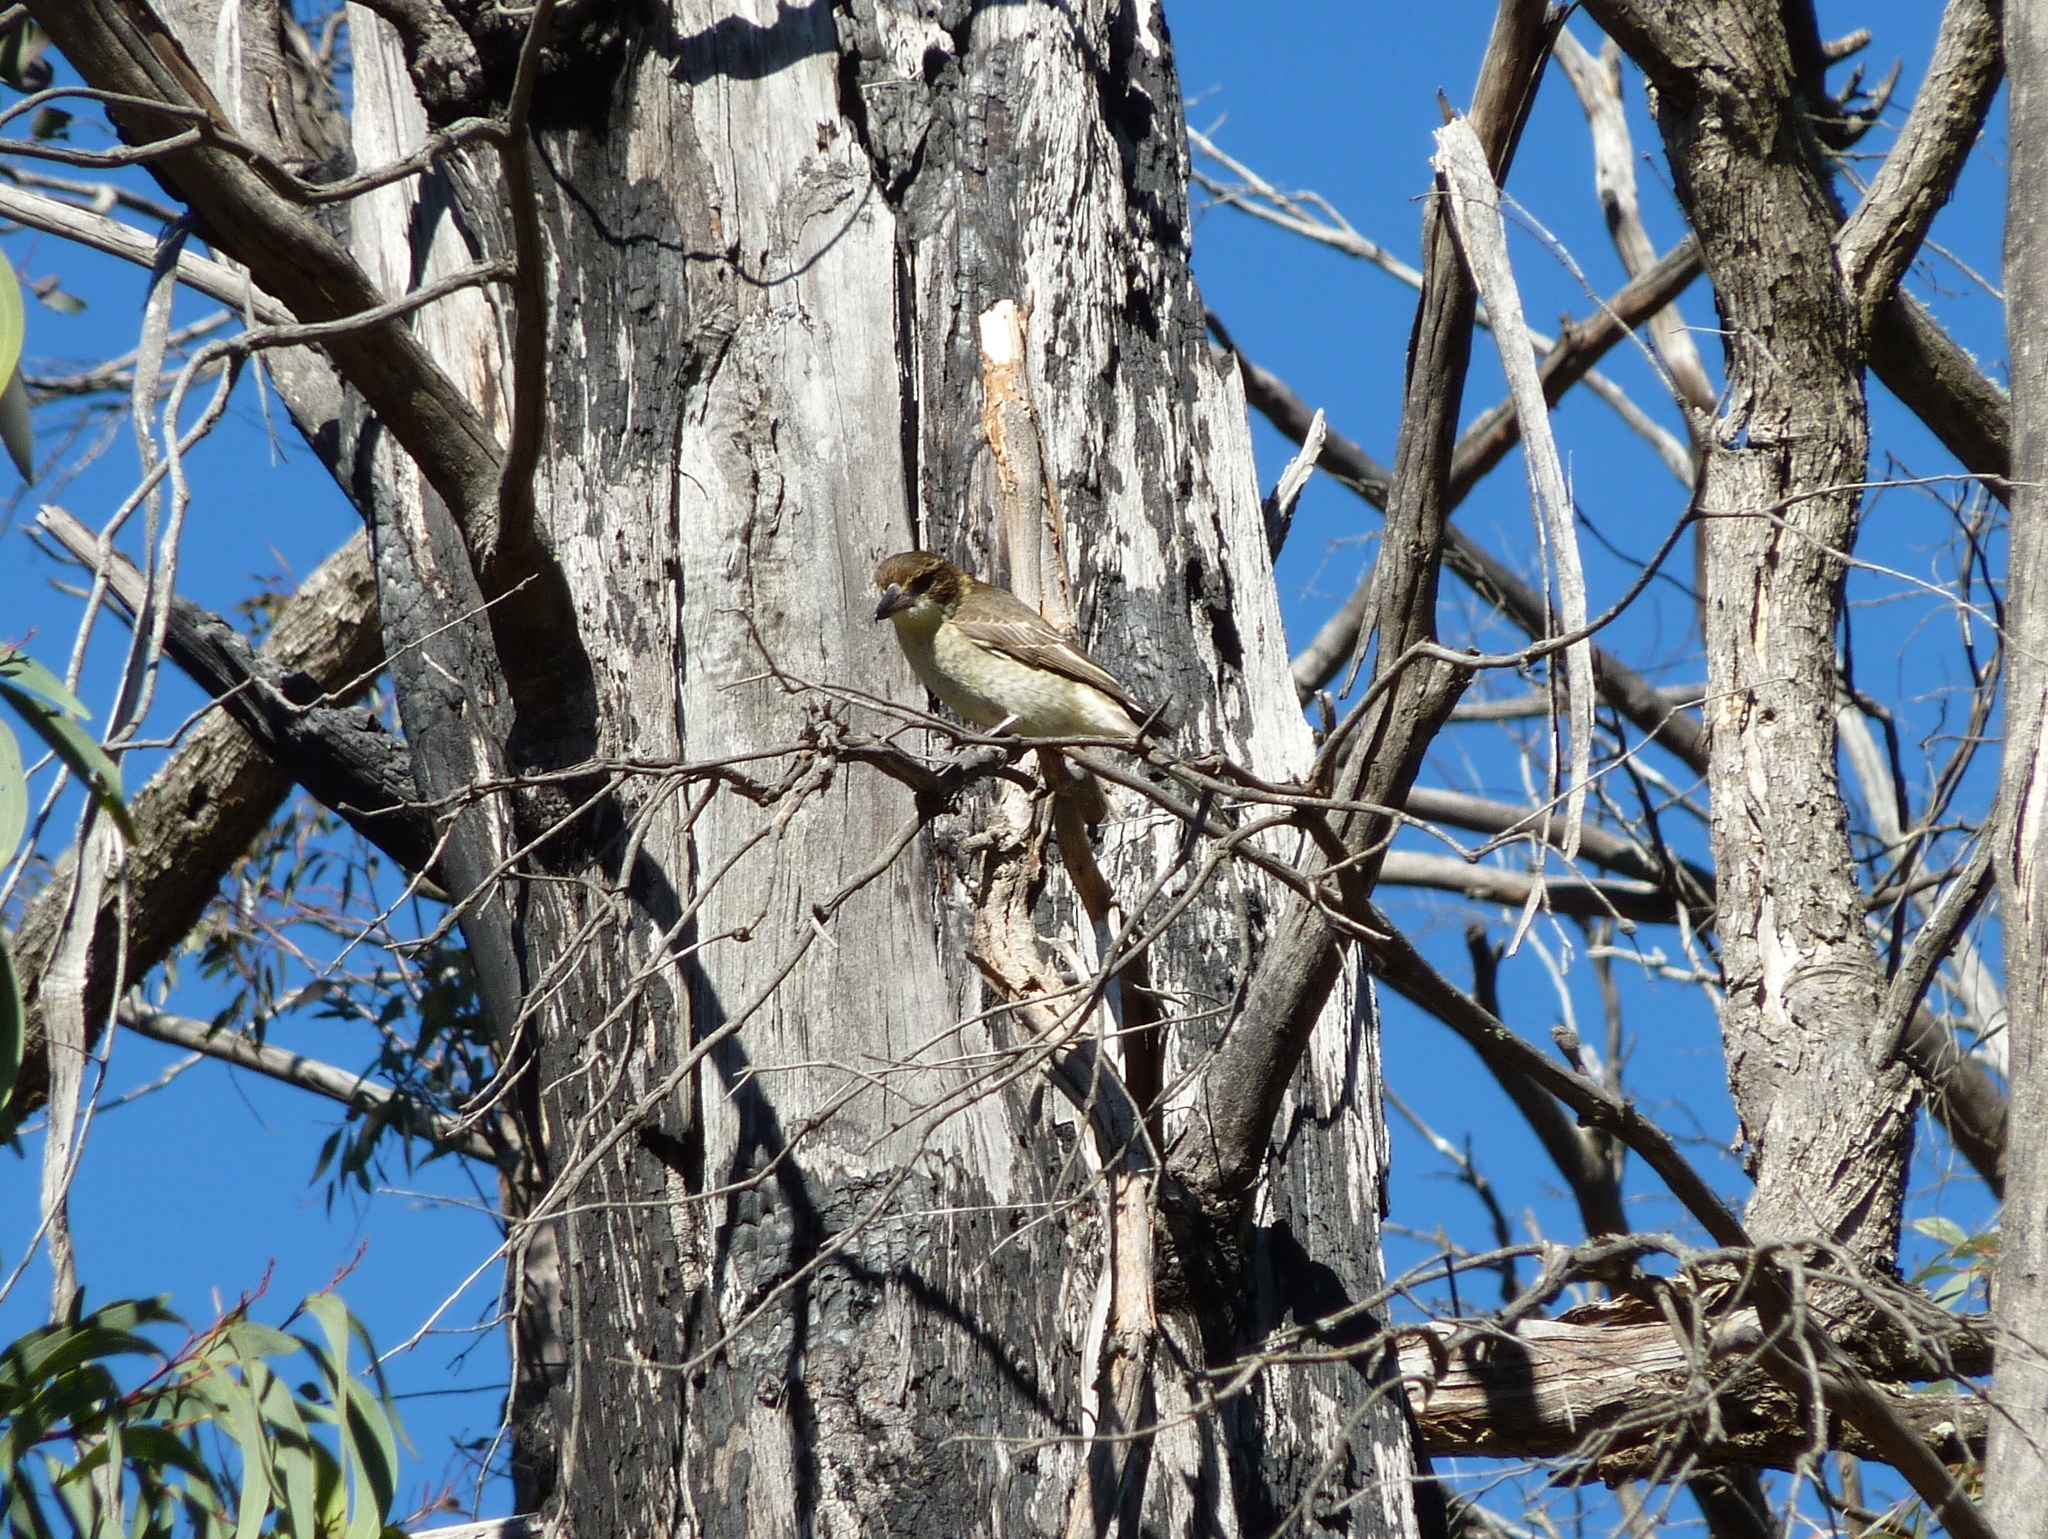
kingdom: Animalia
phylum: Chordata
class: Aves
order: Passeriformes
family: Cracticidae
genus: Cracticus
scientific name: Cracticus torquatus
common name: Grey butcherbird
